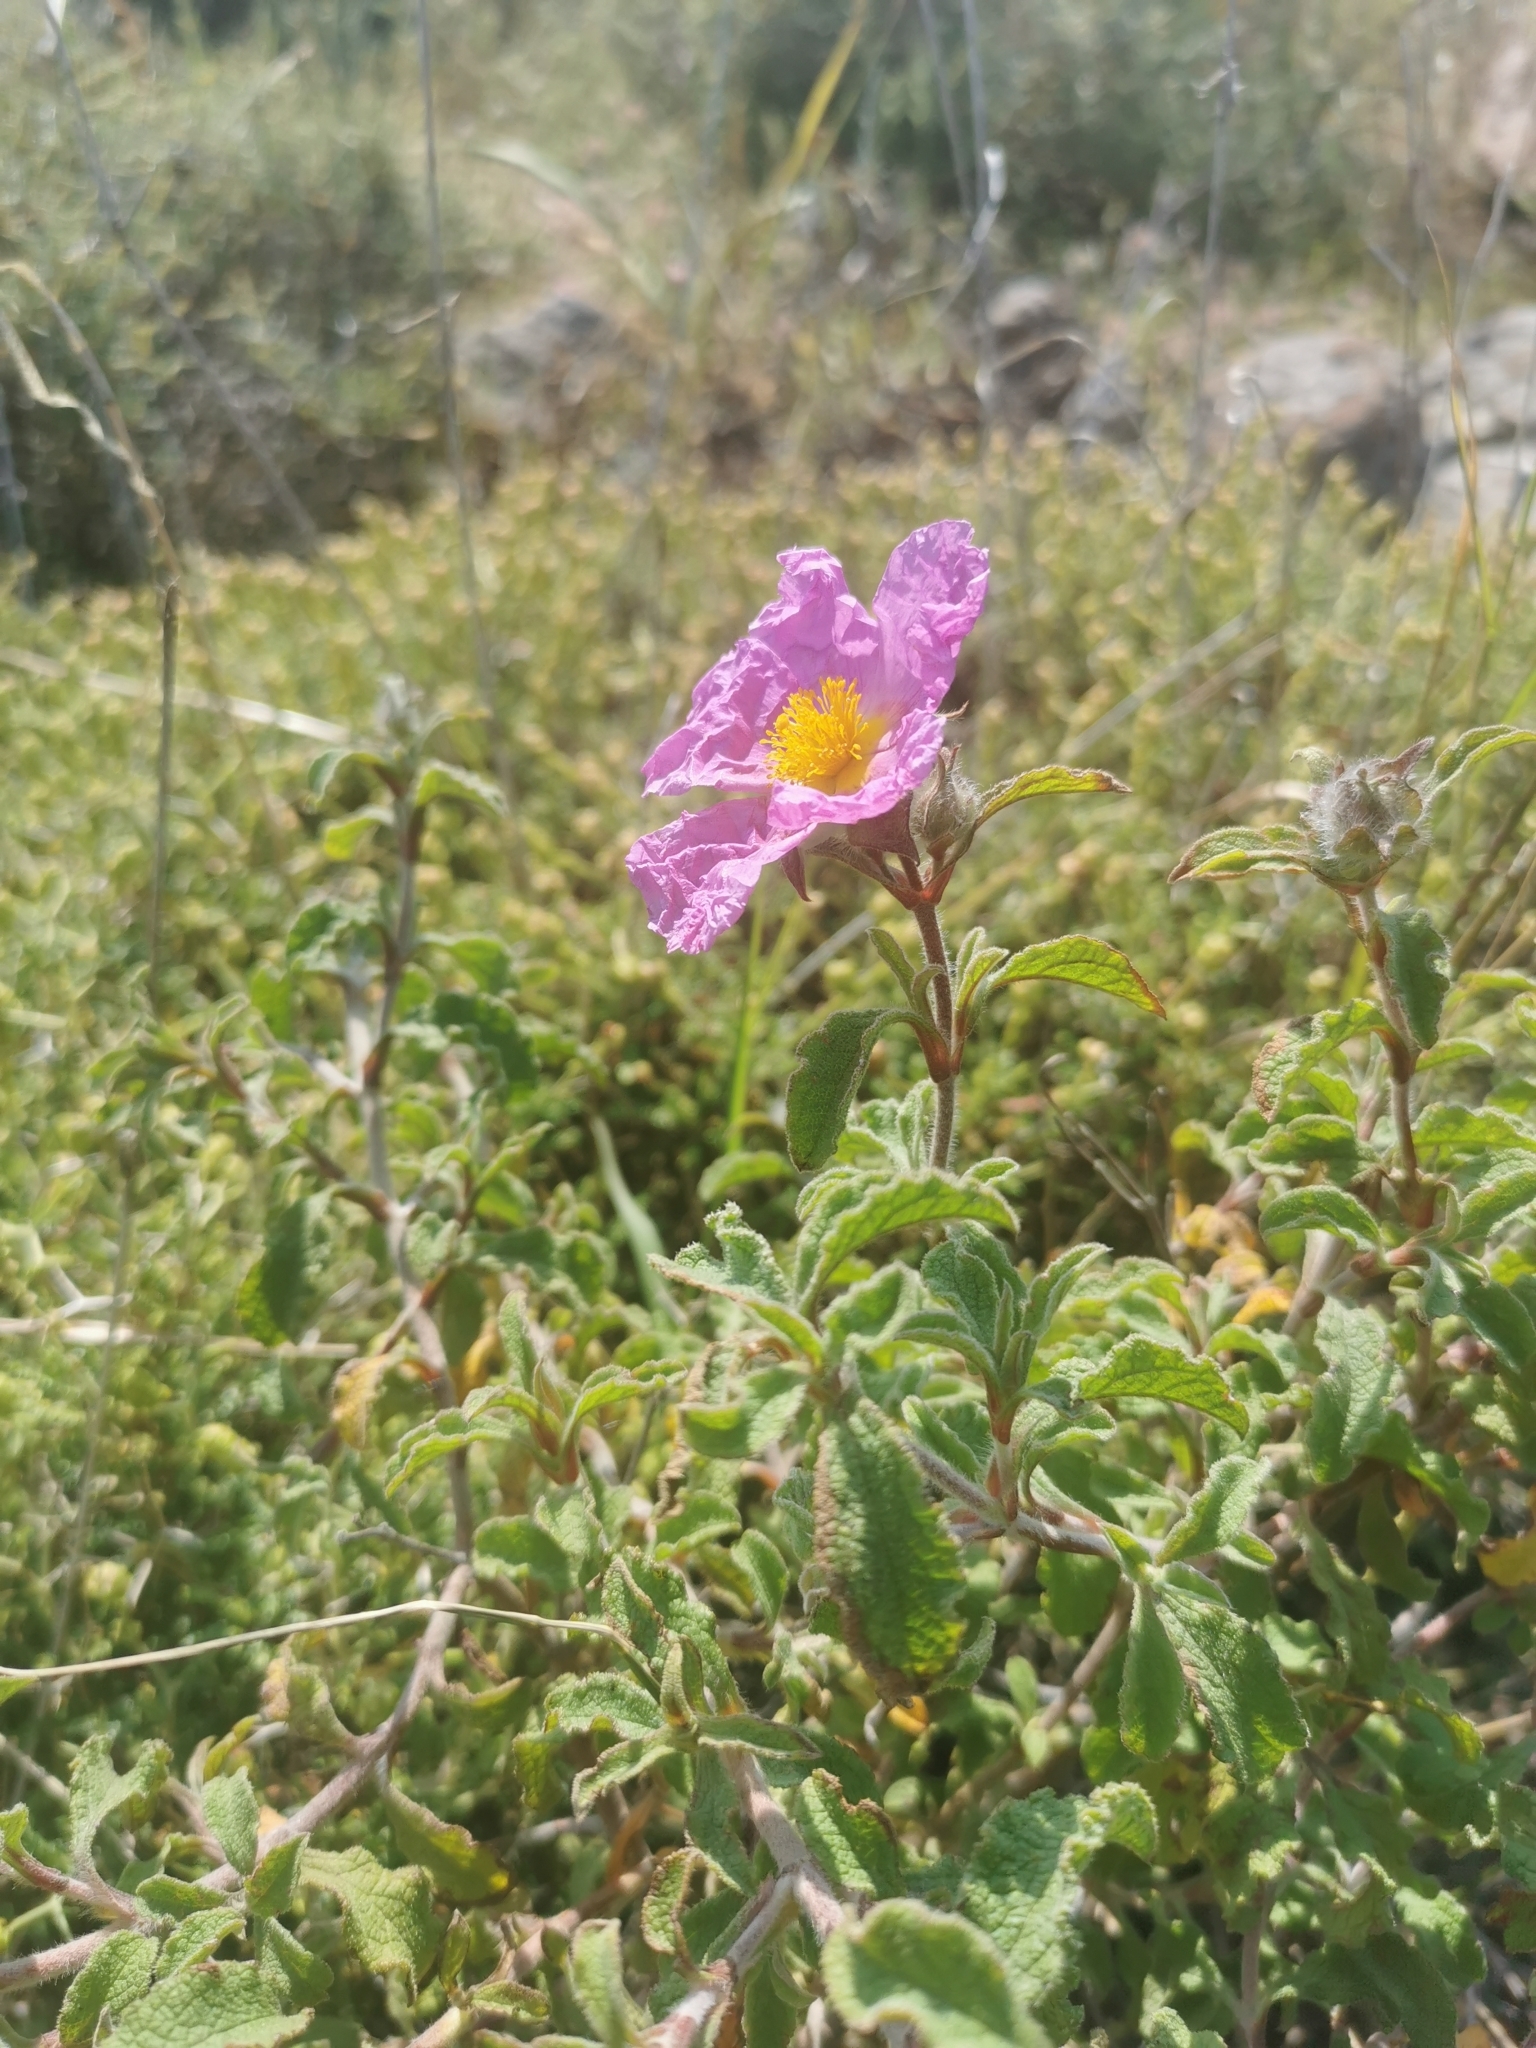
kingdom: Plantae
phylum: Tracheophyta
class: Magnoliopsida
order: Malvales
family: Cistaceae
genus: Cistus
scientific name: Cistus creticus
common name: Cretan rockrose
